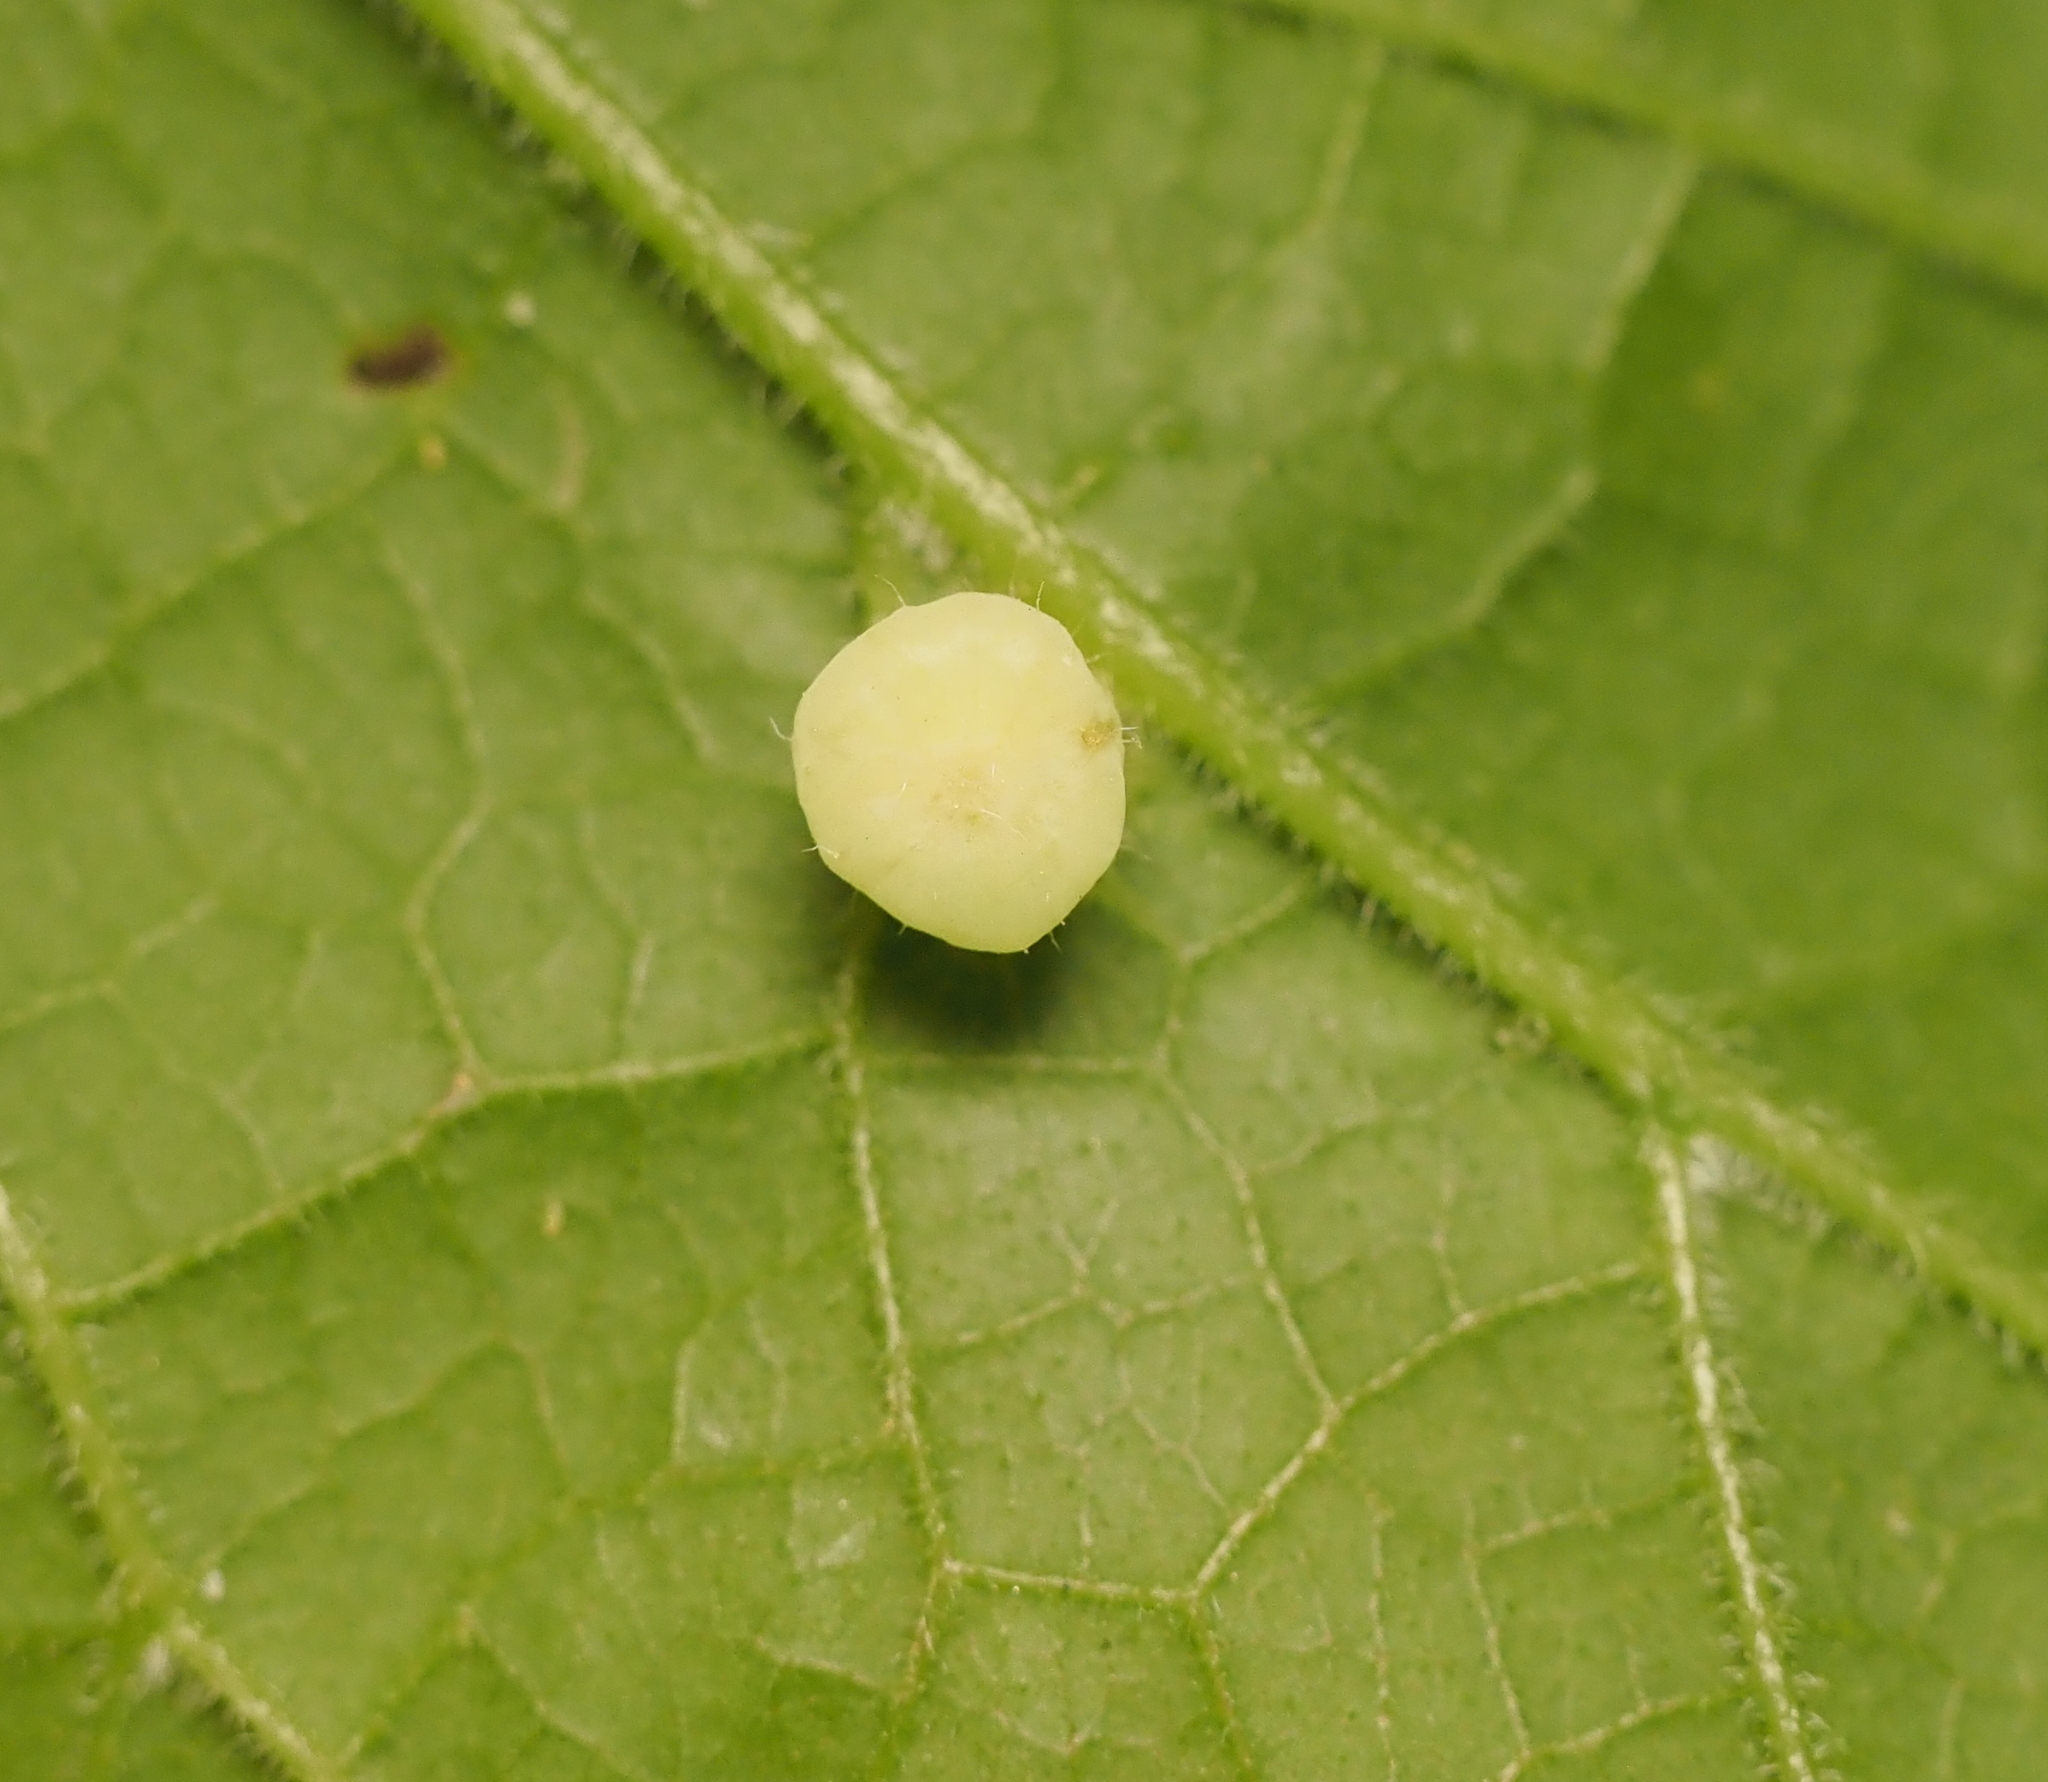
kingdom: Animalia
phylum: Arthropoda
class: Insecta
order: Hemiptera
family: Aphalaridae
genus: Pachypsylla
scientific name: Pachypsylla celtidismamma
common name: Hackberry nipplegall psyllid
